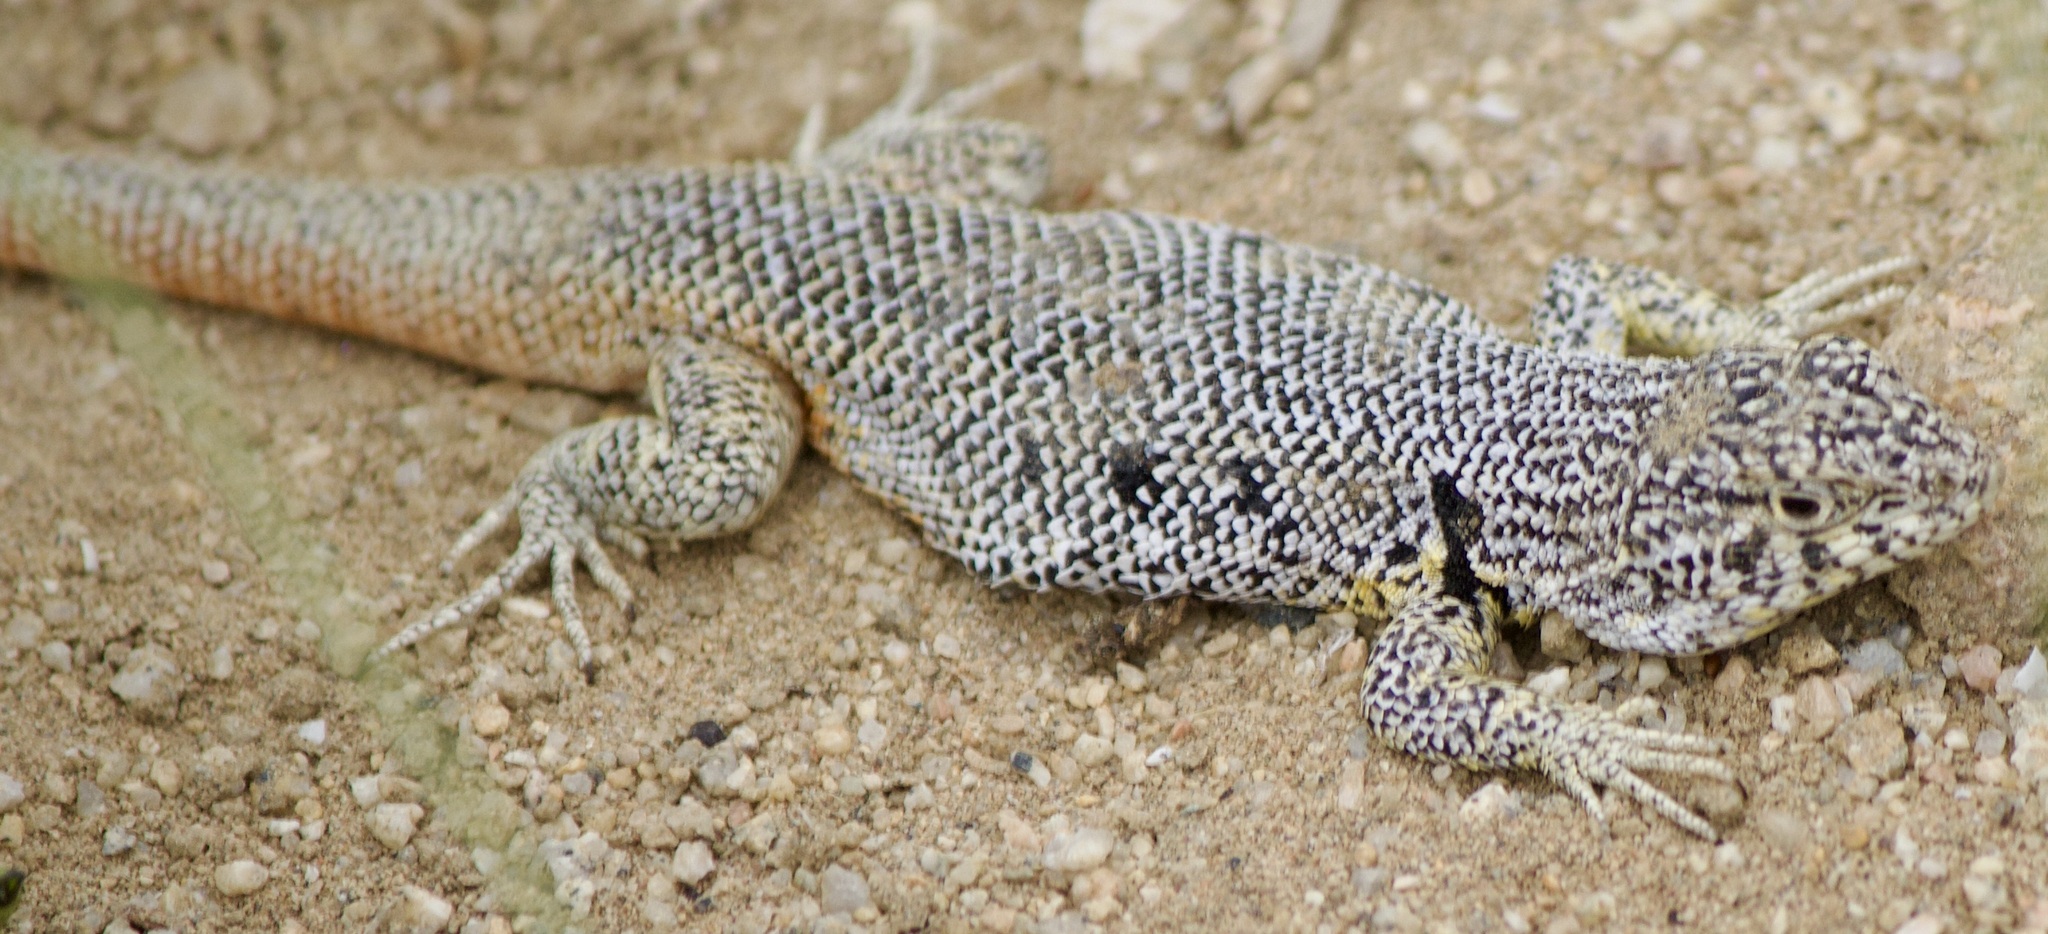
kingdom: Animalia
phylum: Chordata
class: Squamata
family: Liolaemidae
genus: Liolaemus
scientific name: Liolaemus nigromaculatus
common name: Many-spotted tree iguana
